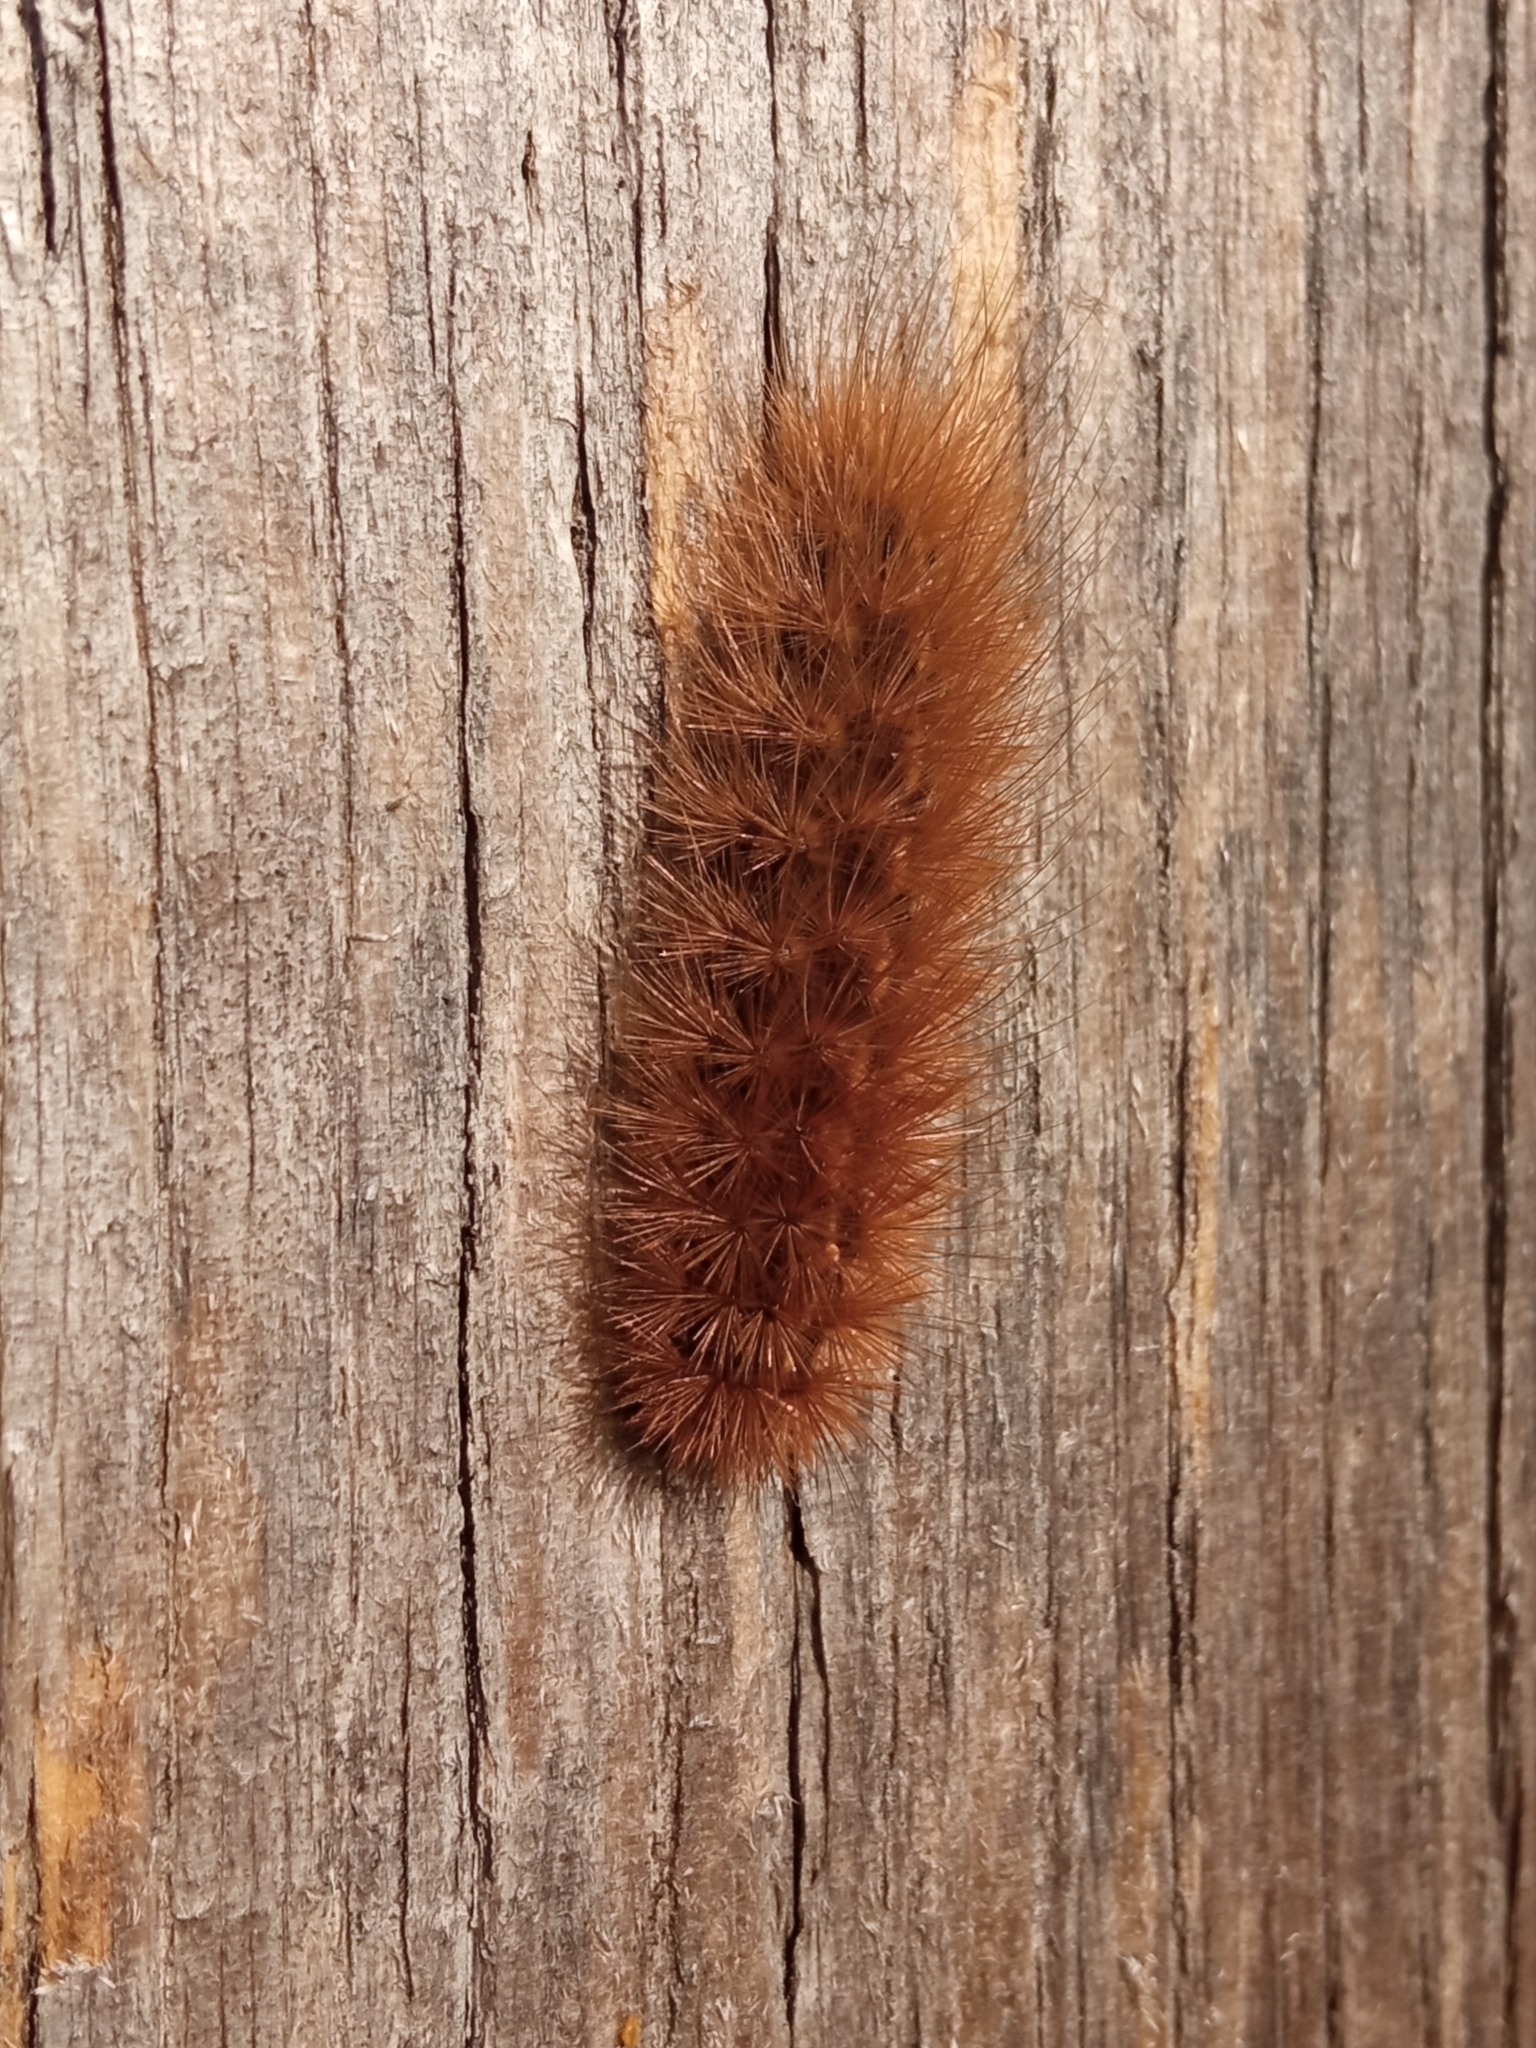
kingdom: Animalia
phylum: Arthropoda
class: Insecta
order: Lepidoptera
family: Erebidae
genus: Phragmatobia
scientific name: Phragmatobia fuliginosa
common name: Ruby tiger
